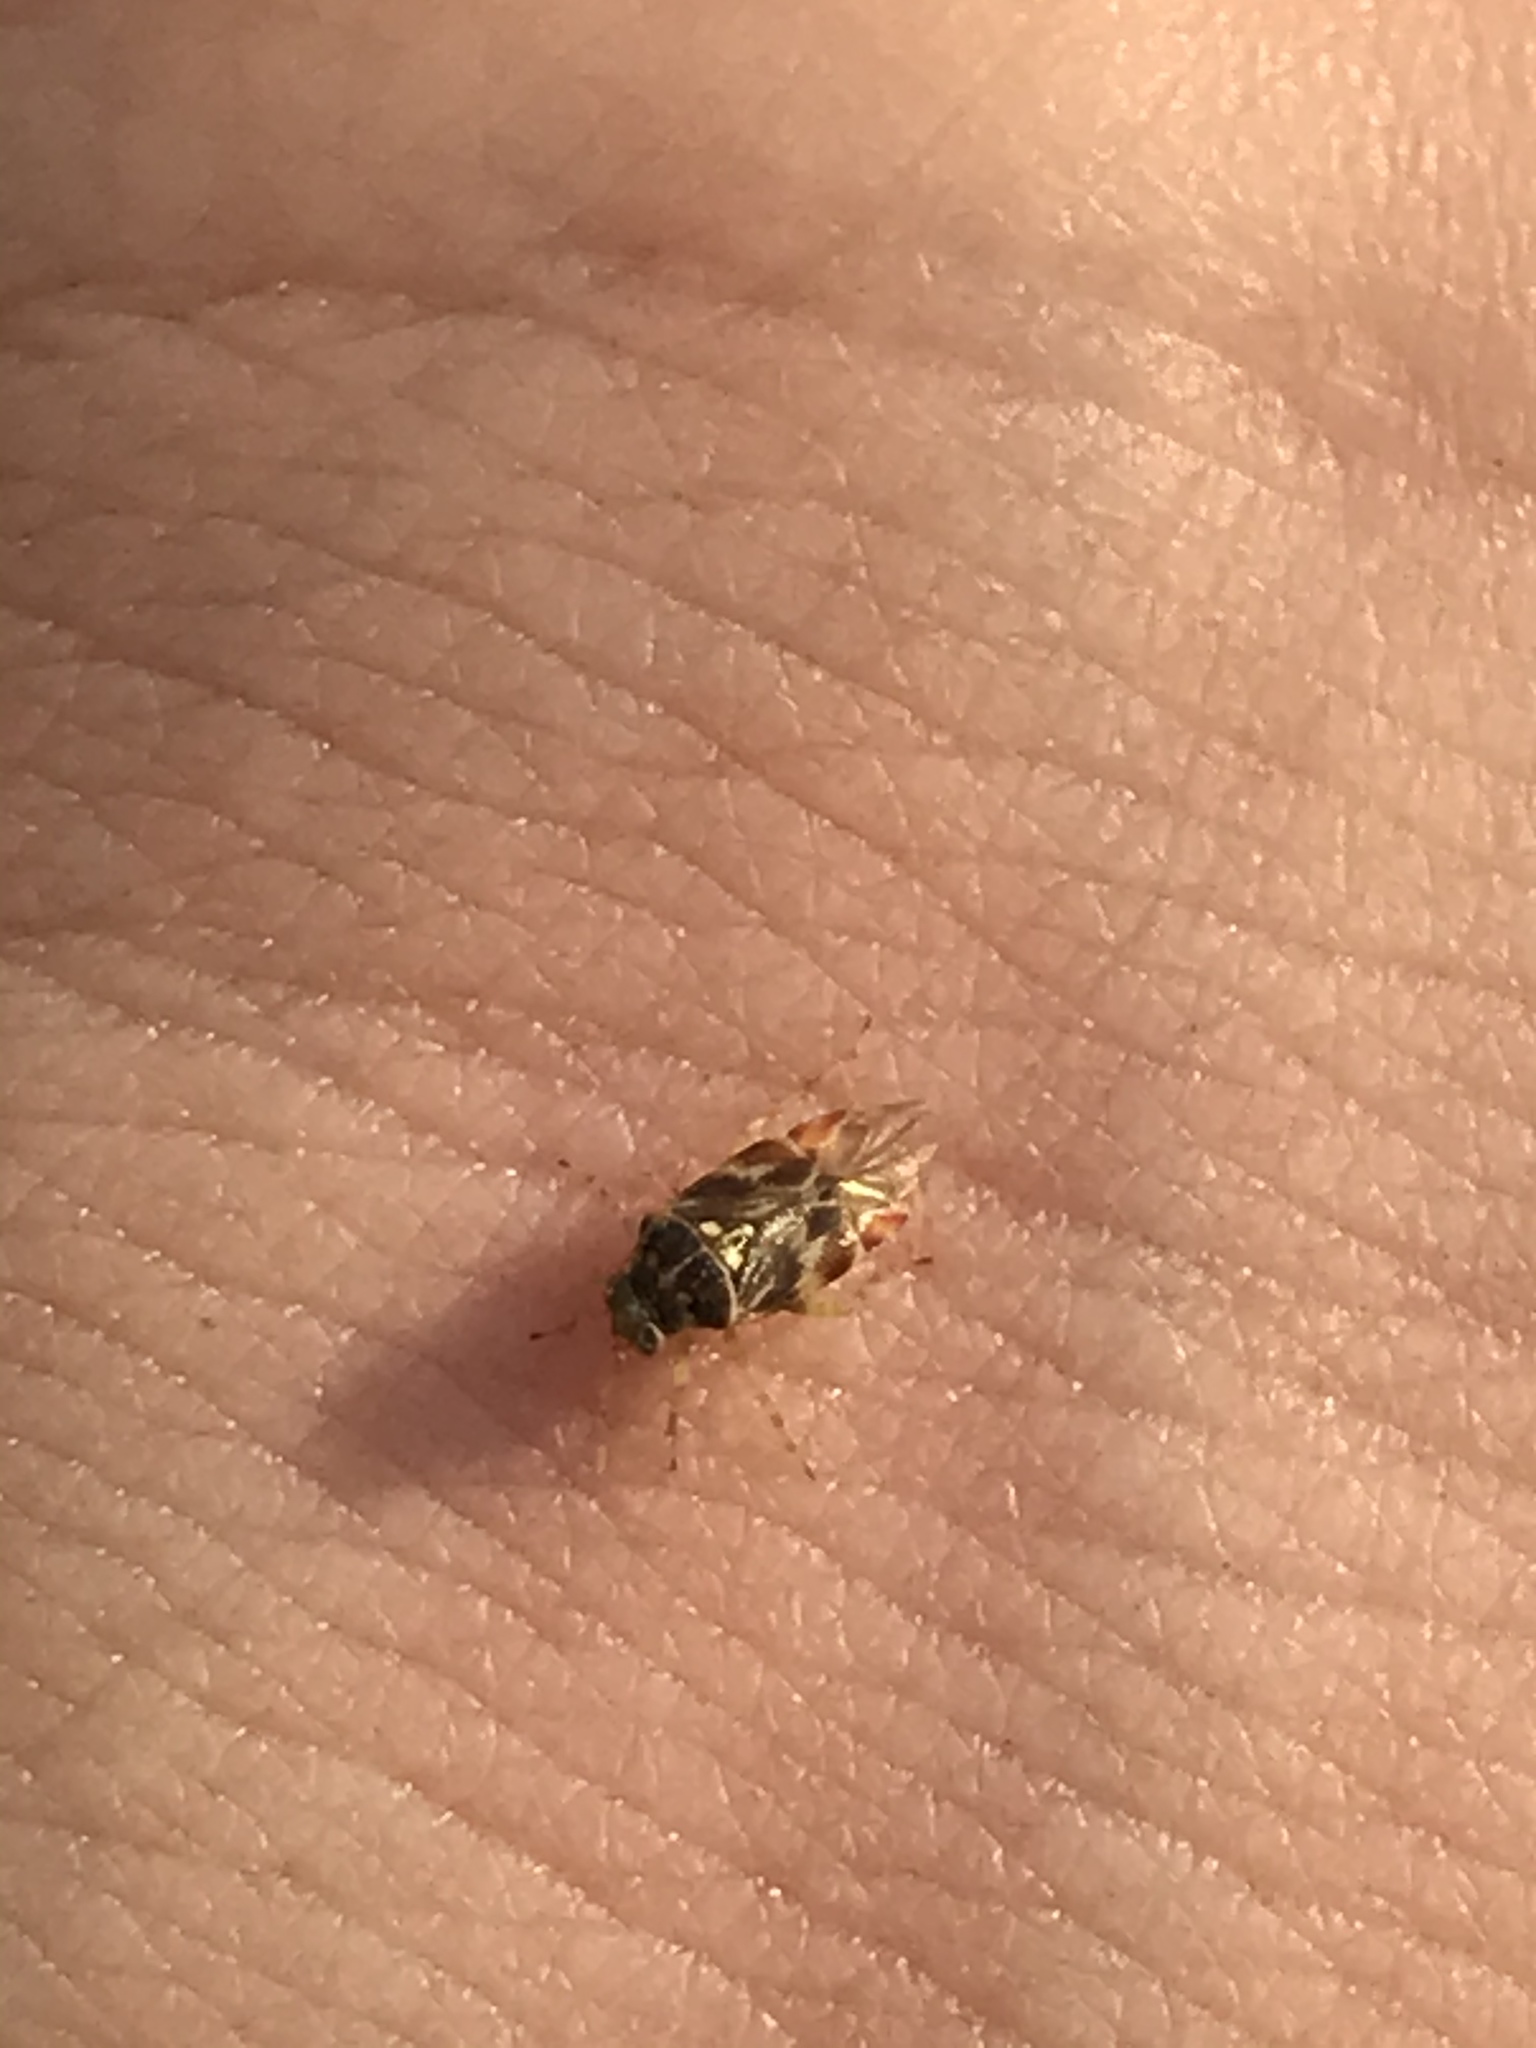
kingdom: Animalia
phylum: Arthropoda
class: Insecta
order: Hemiptera
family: Miridae
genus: Tropidosteptes
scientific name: Tropidosteptes quercicola
